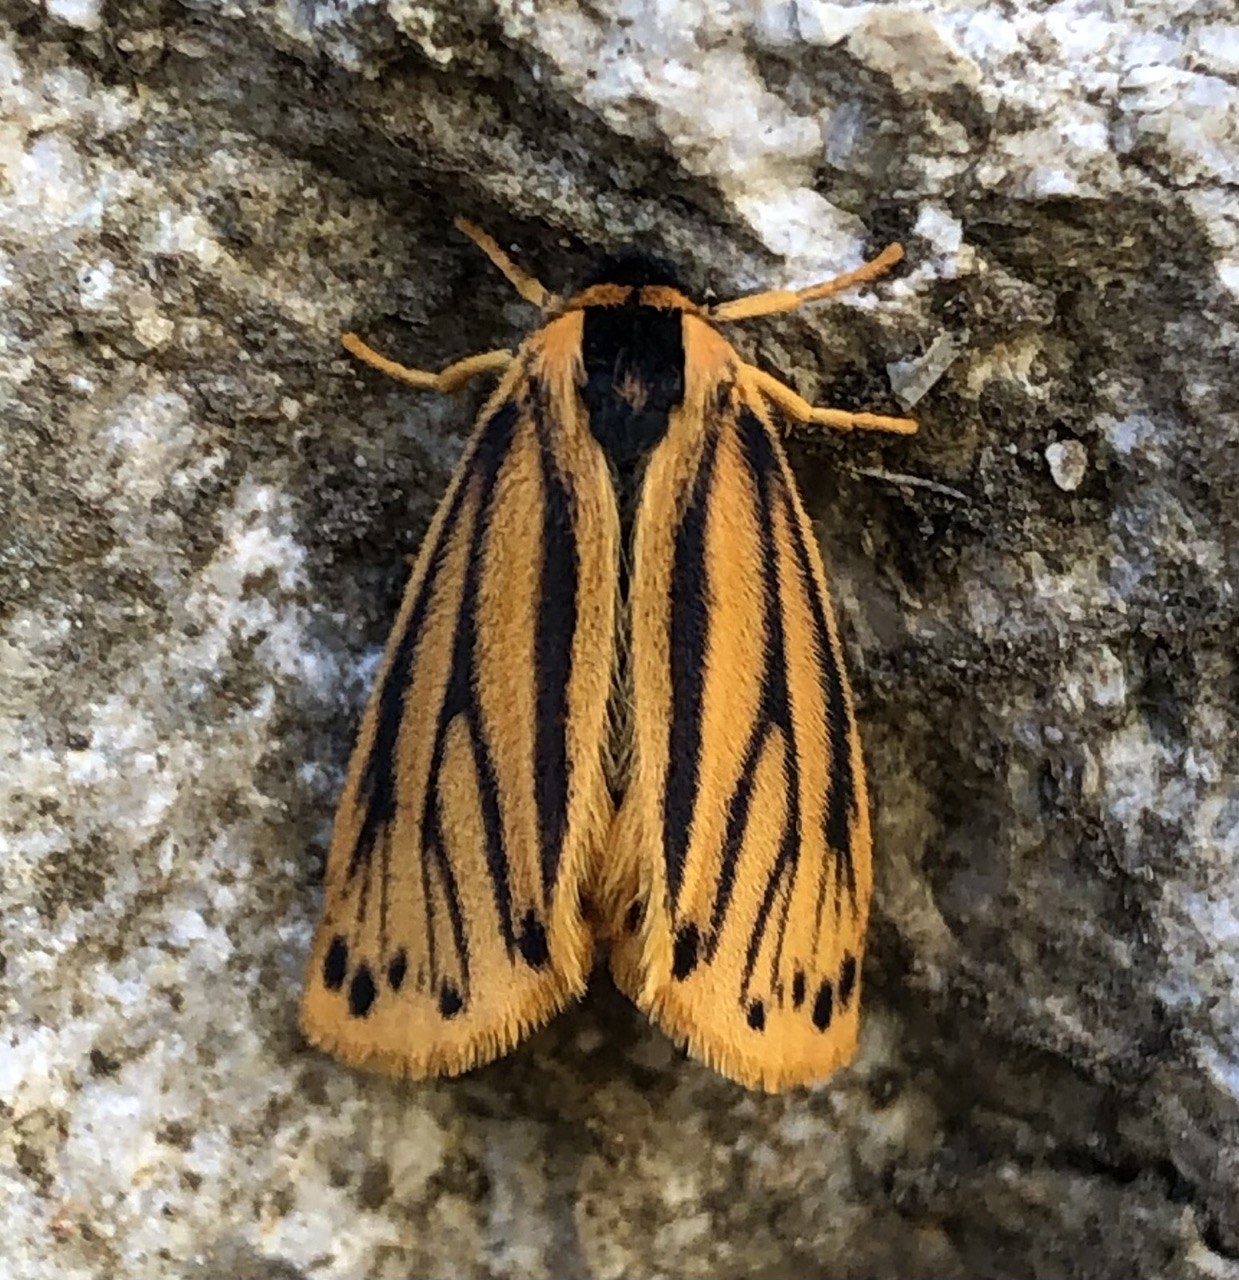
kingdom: Animalia
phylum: Arthropoda
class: Insecta
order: Lepidoptera
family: Erebidae
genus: Setina
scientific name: Setina aurita
